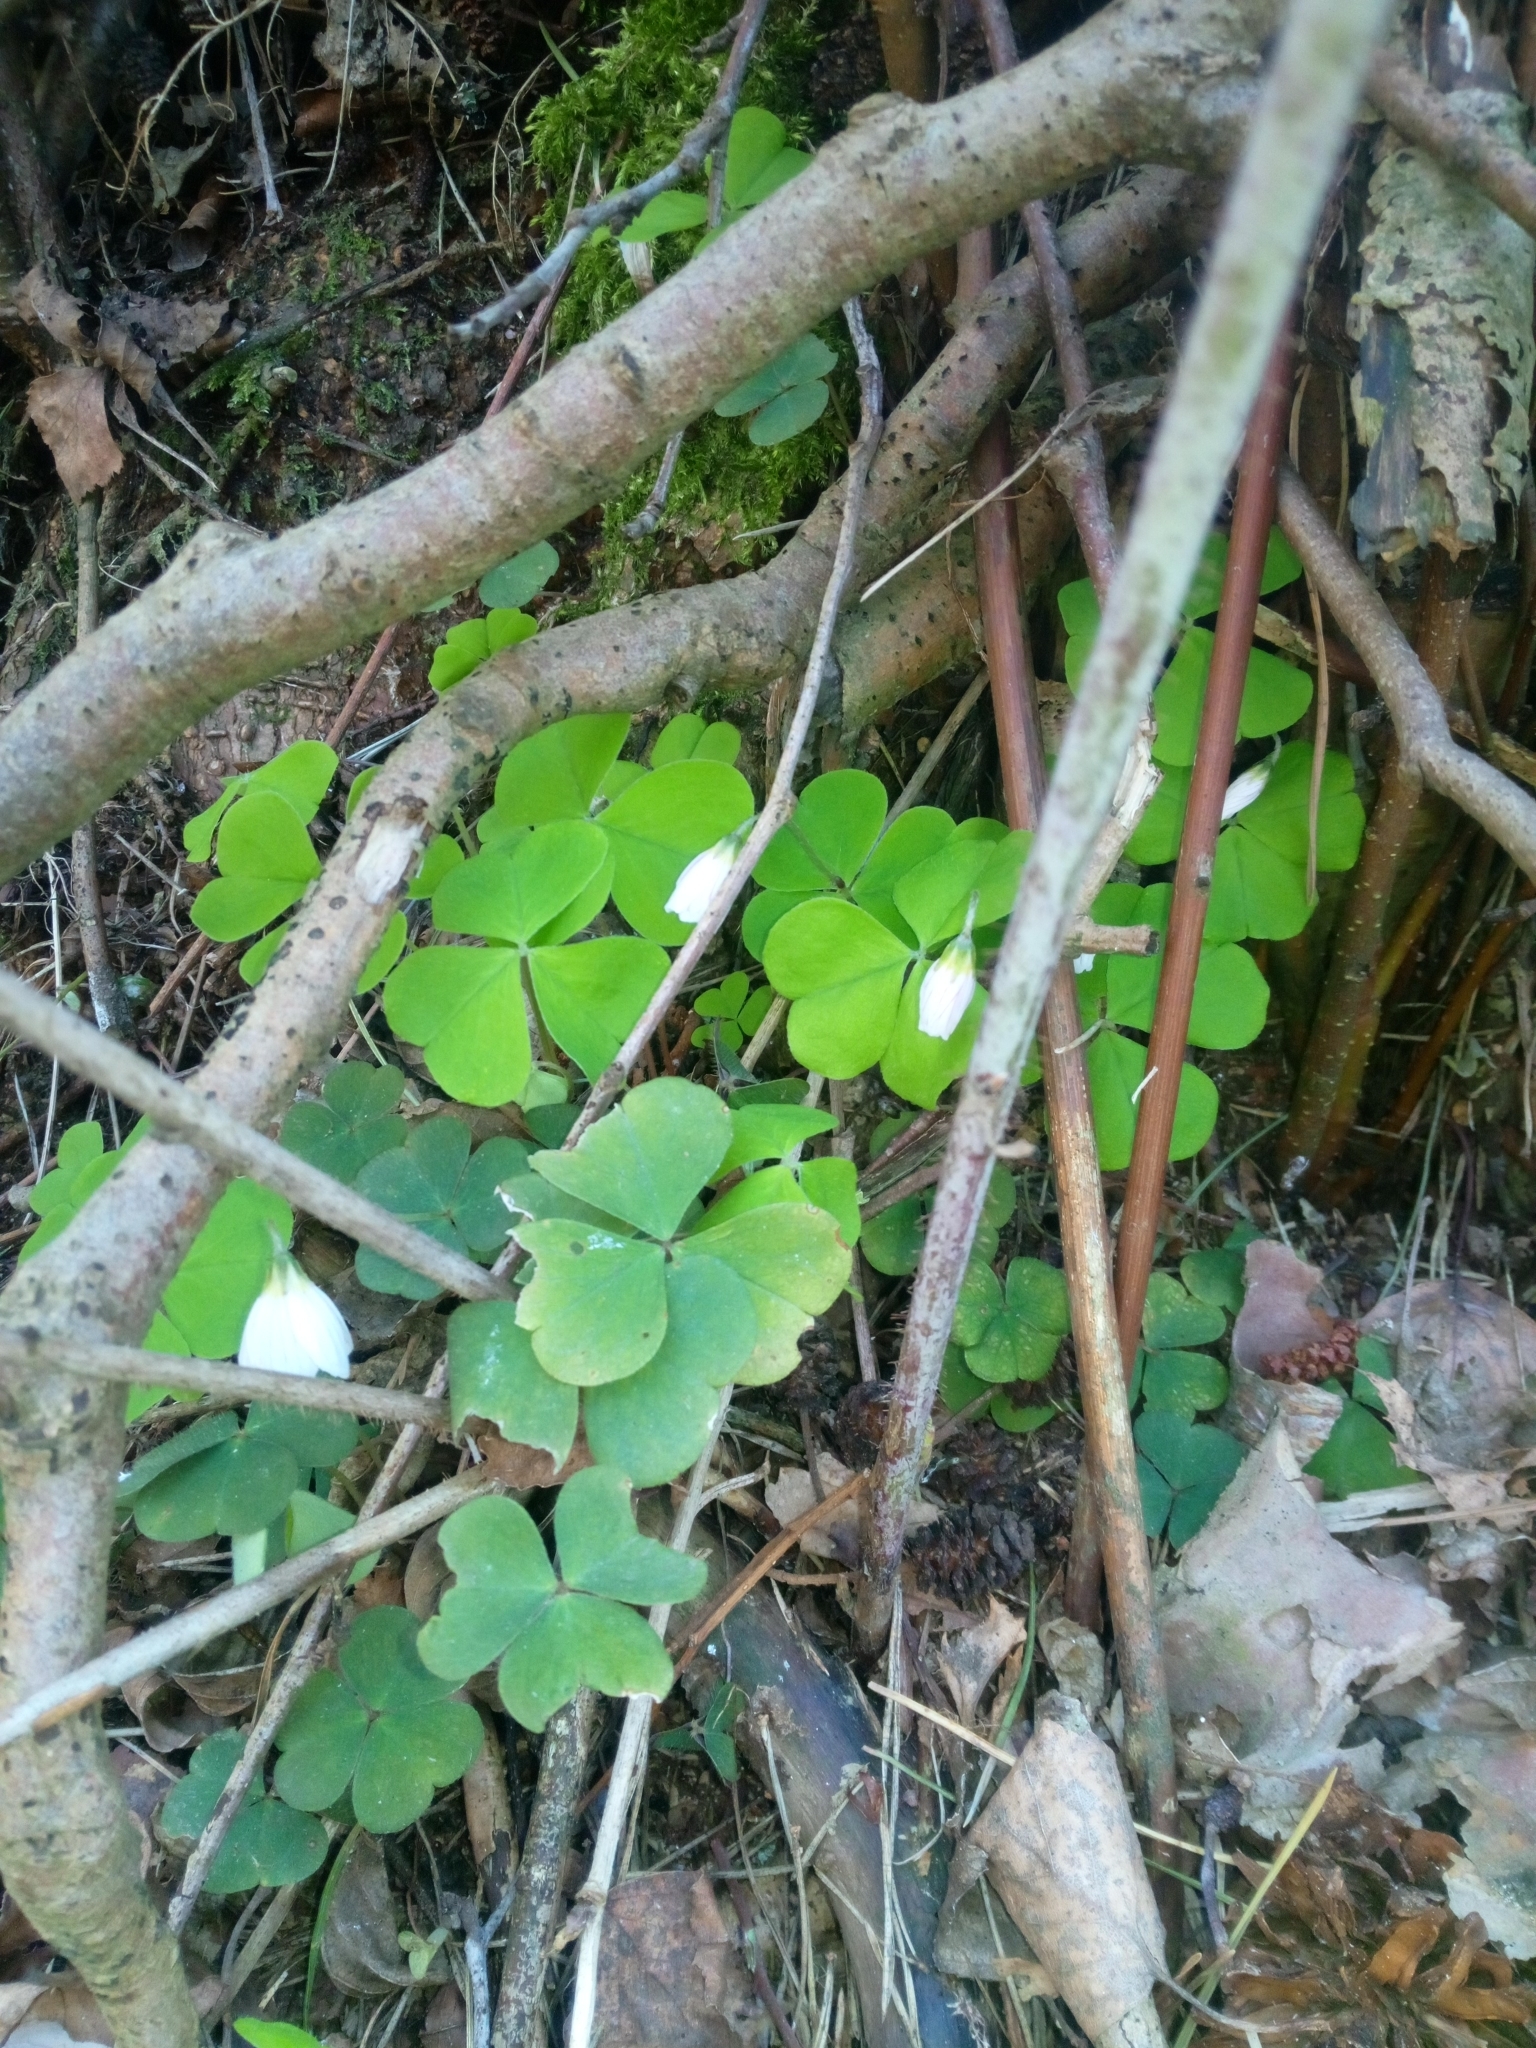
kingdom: Plantae
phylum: Tracheophyta
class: Magnoliopsida
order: Oxalidales
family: Oxalidaceae
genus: Oxalis
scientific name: Oxalis acetosella
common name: Wood-sorrel
